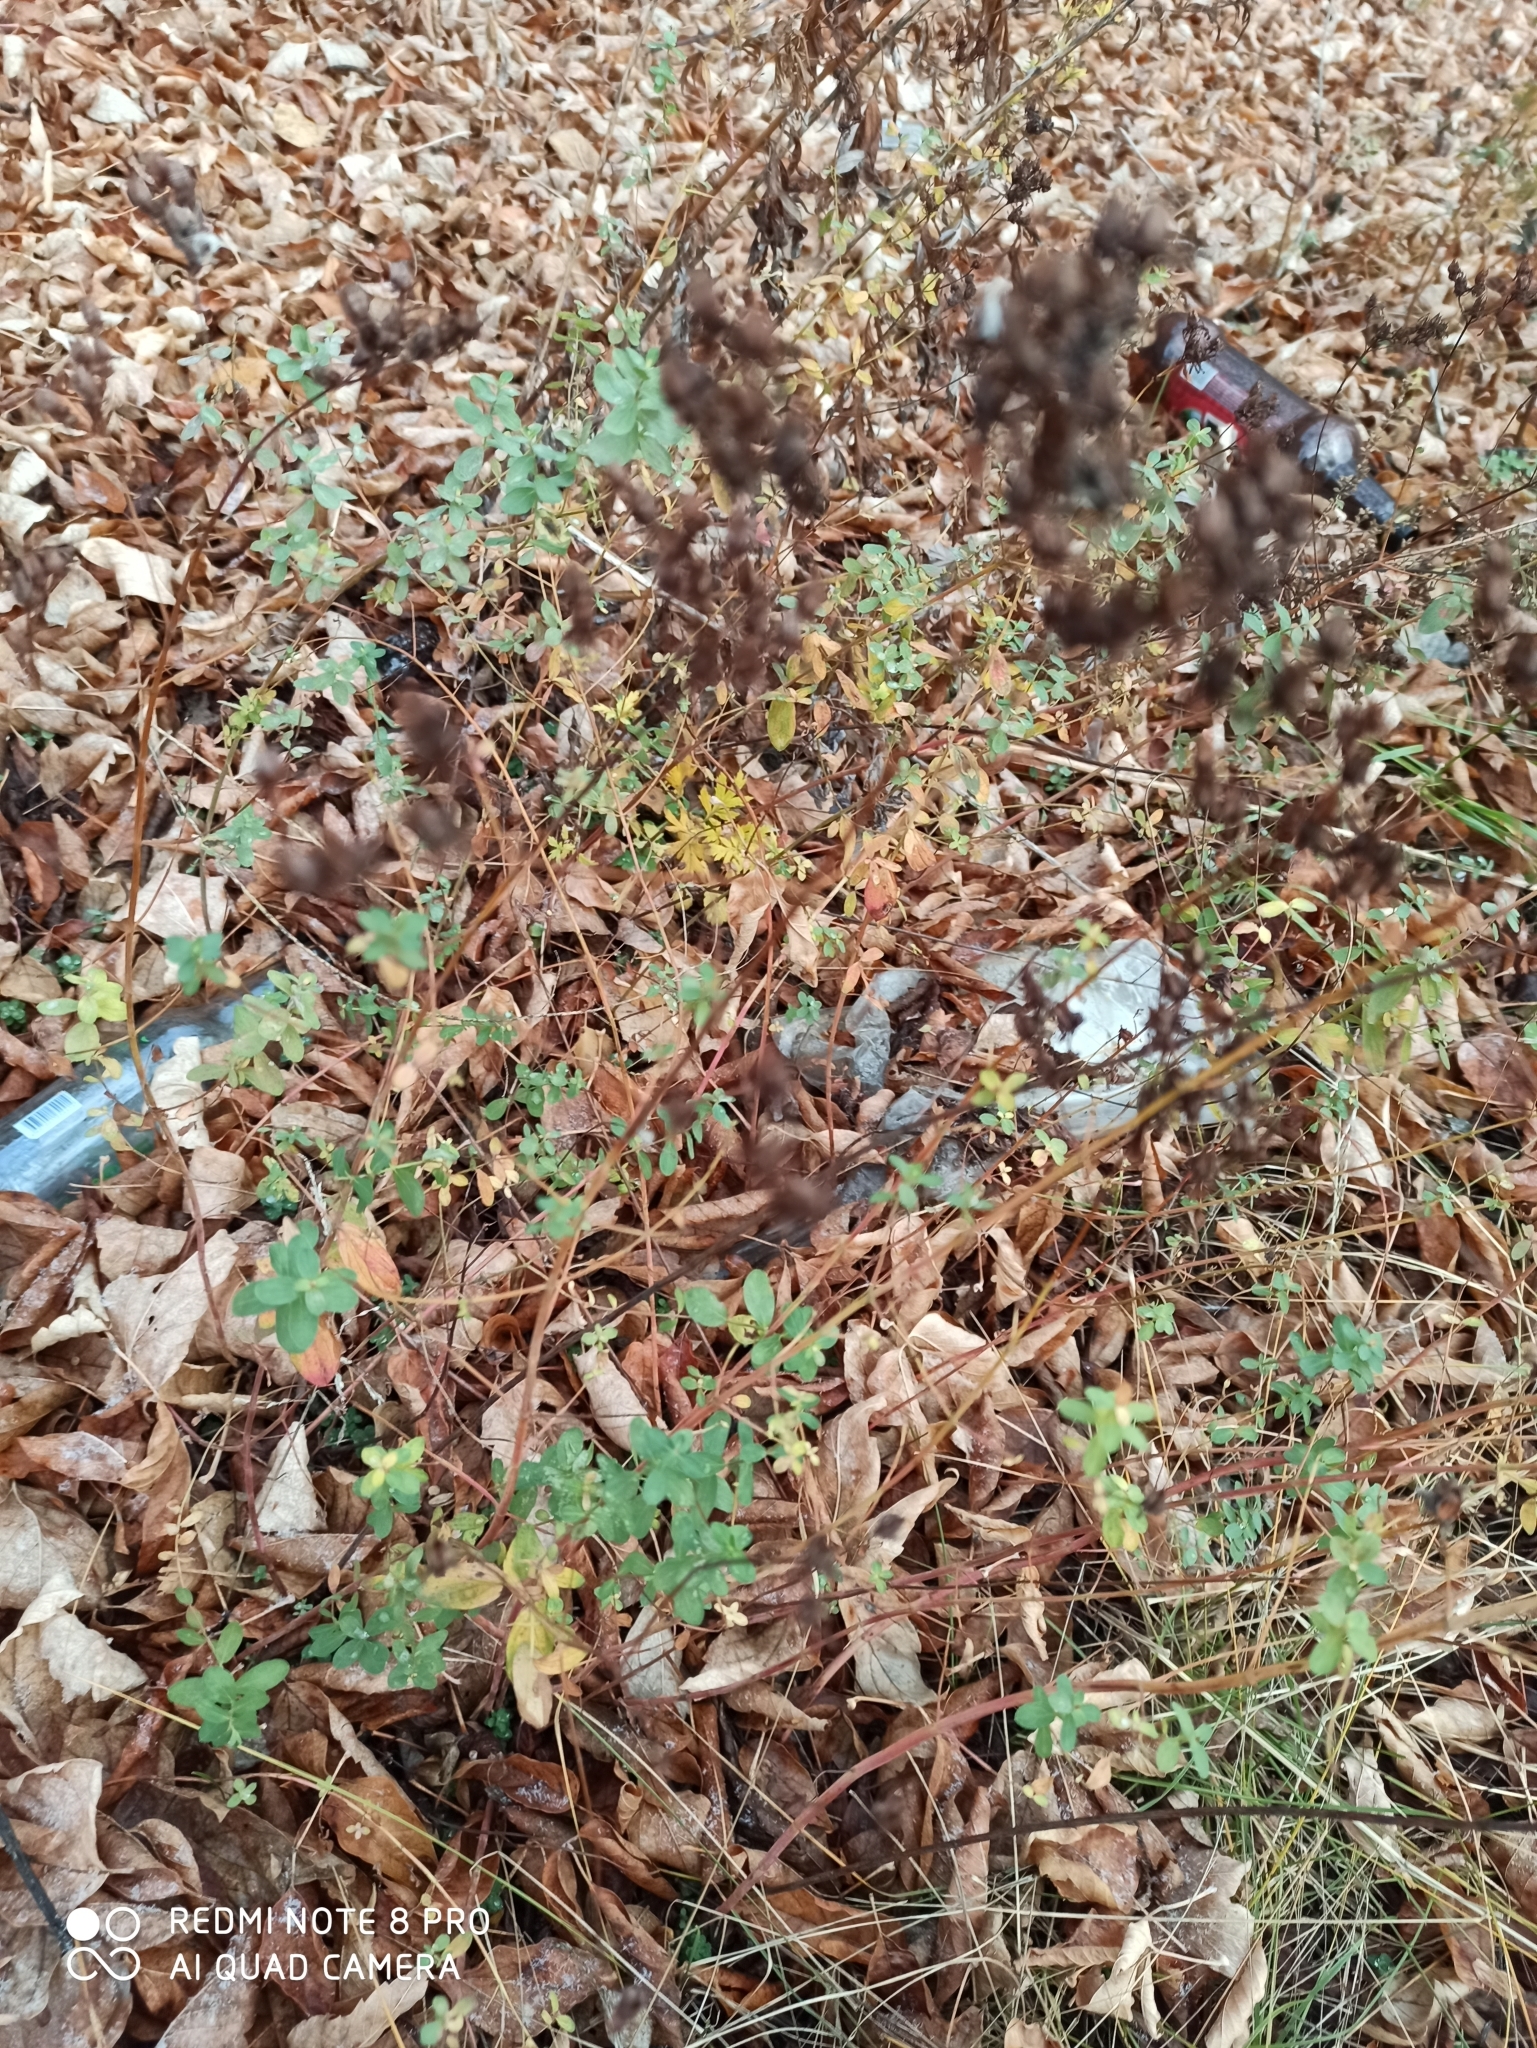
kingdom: Plantae
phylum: Tracheophyta
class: Magnoliopsida
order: Malpighiales
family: Hypericaceae
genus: Hypericum
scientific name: Hypericum perforatum
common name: Common st. johnswort
